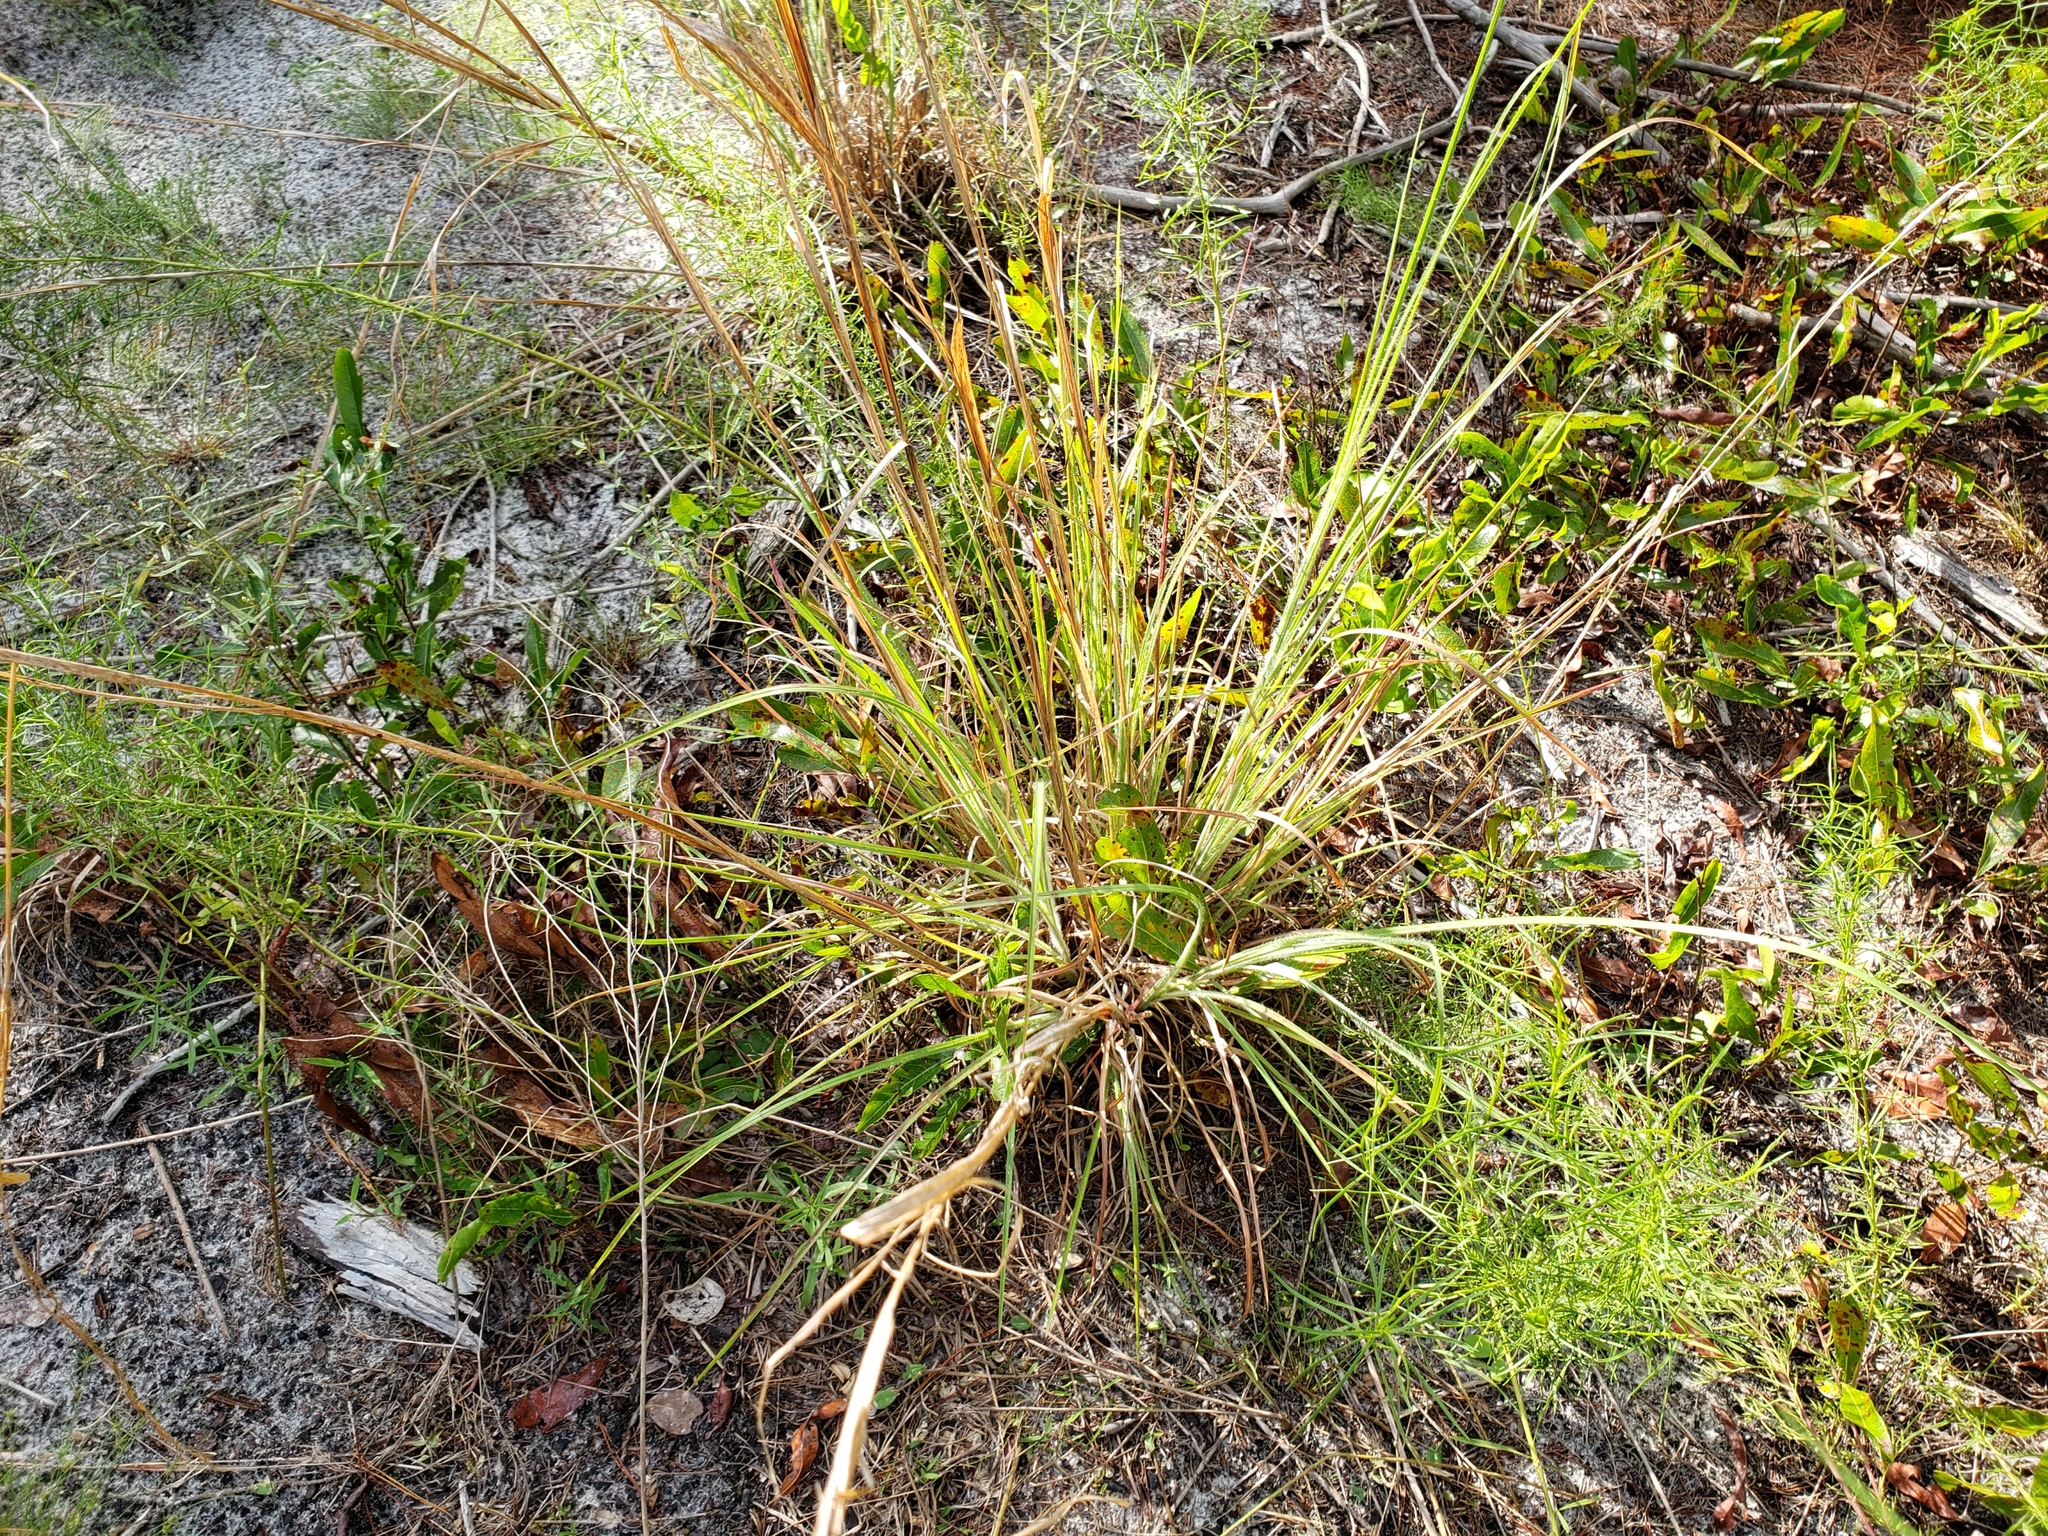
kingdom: Plantae
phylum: Tracheophyta
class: Liliopsida
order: Poales
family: Poaceae
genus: Andropogon
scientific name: Andropogon hirsutior
